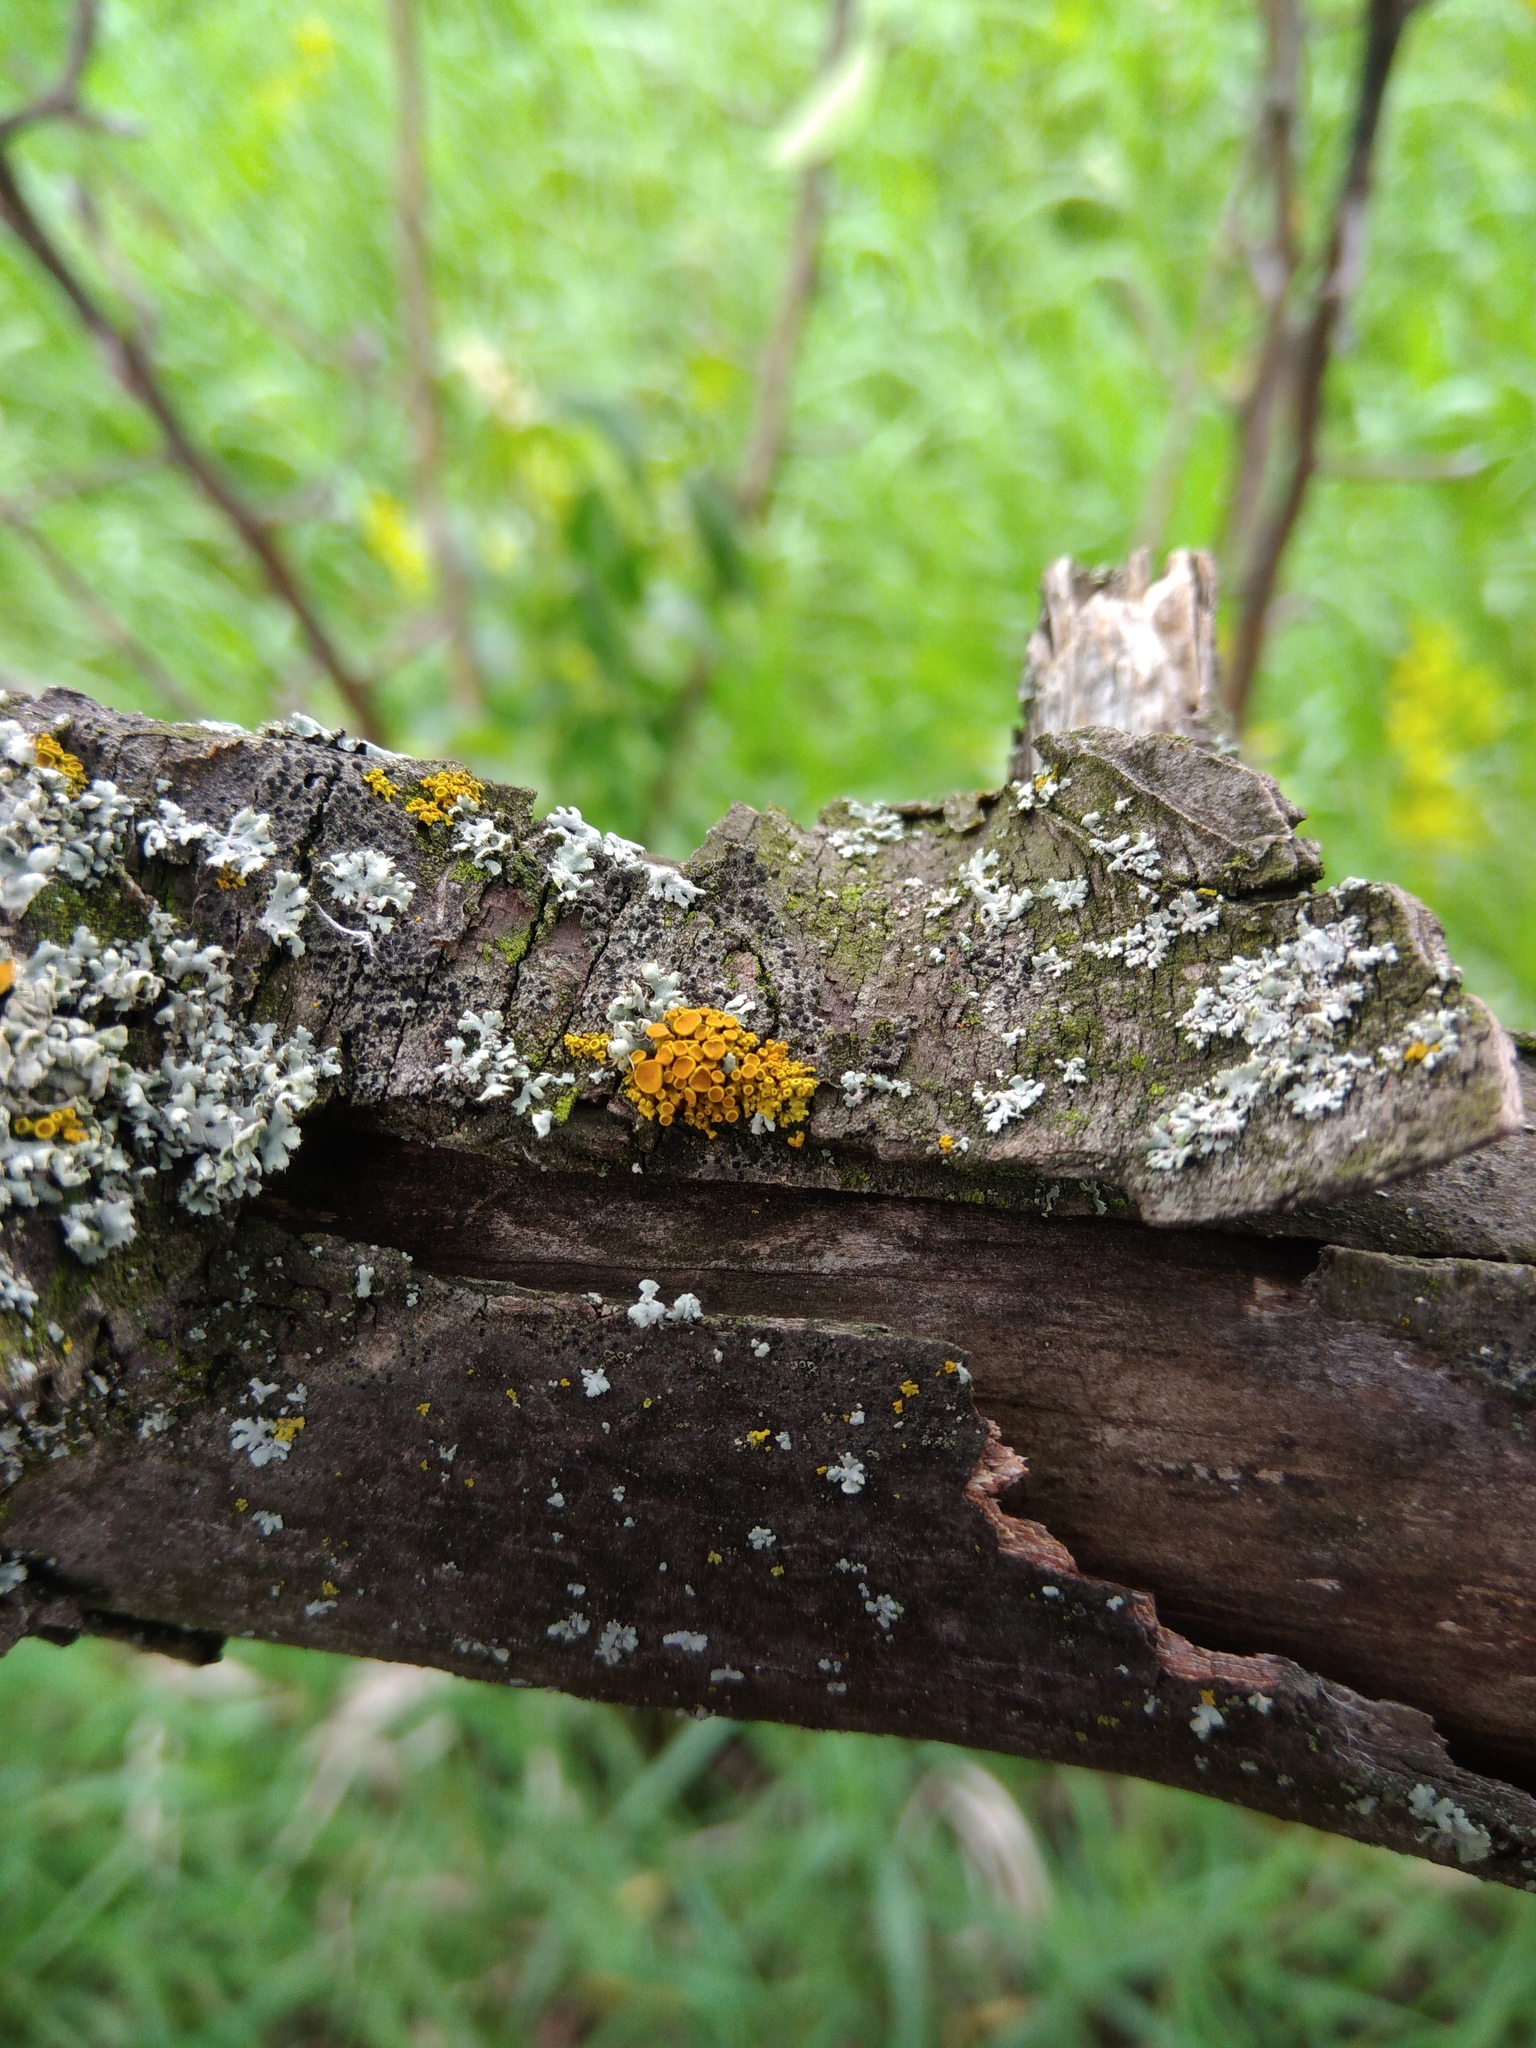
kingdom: Fungi
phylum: Ascomycota
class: Lecanoromycetes
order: Teloschistales
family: Teloschistaceae
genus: Polycauliona
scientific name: Polycauliona polycarpa
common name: Pin-cushion sunburst lichen
